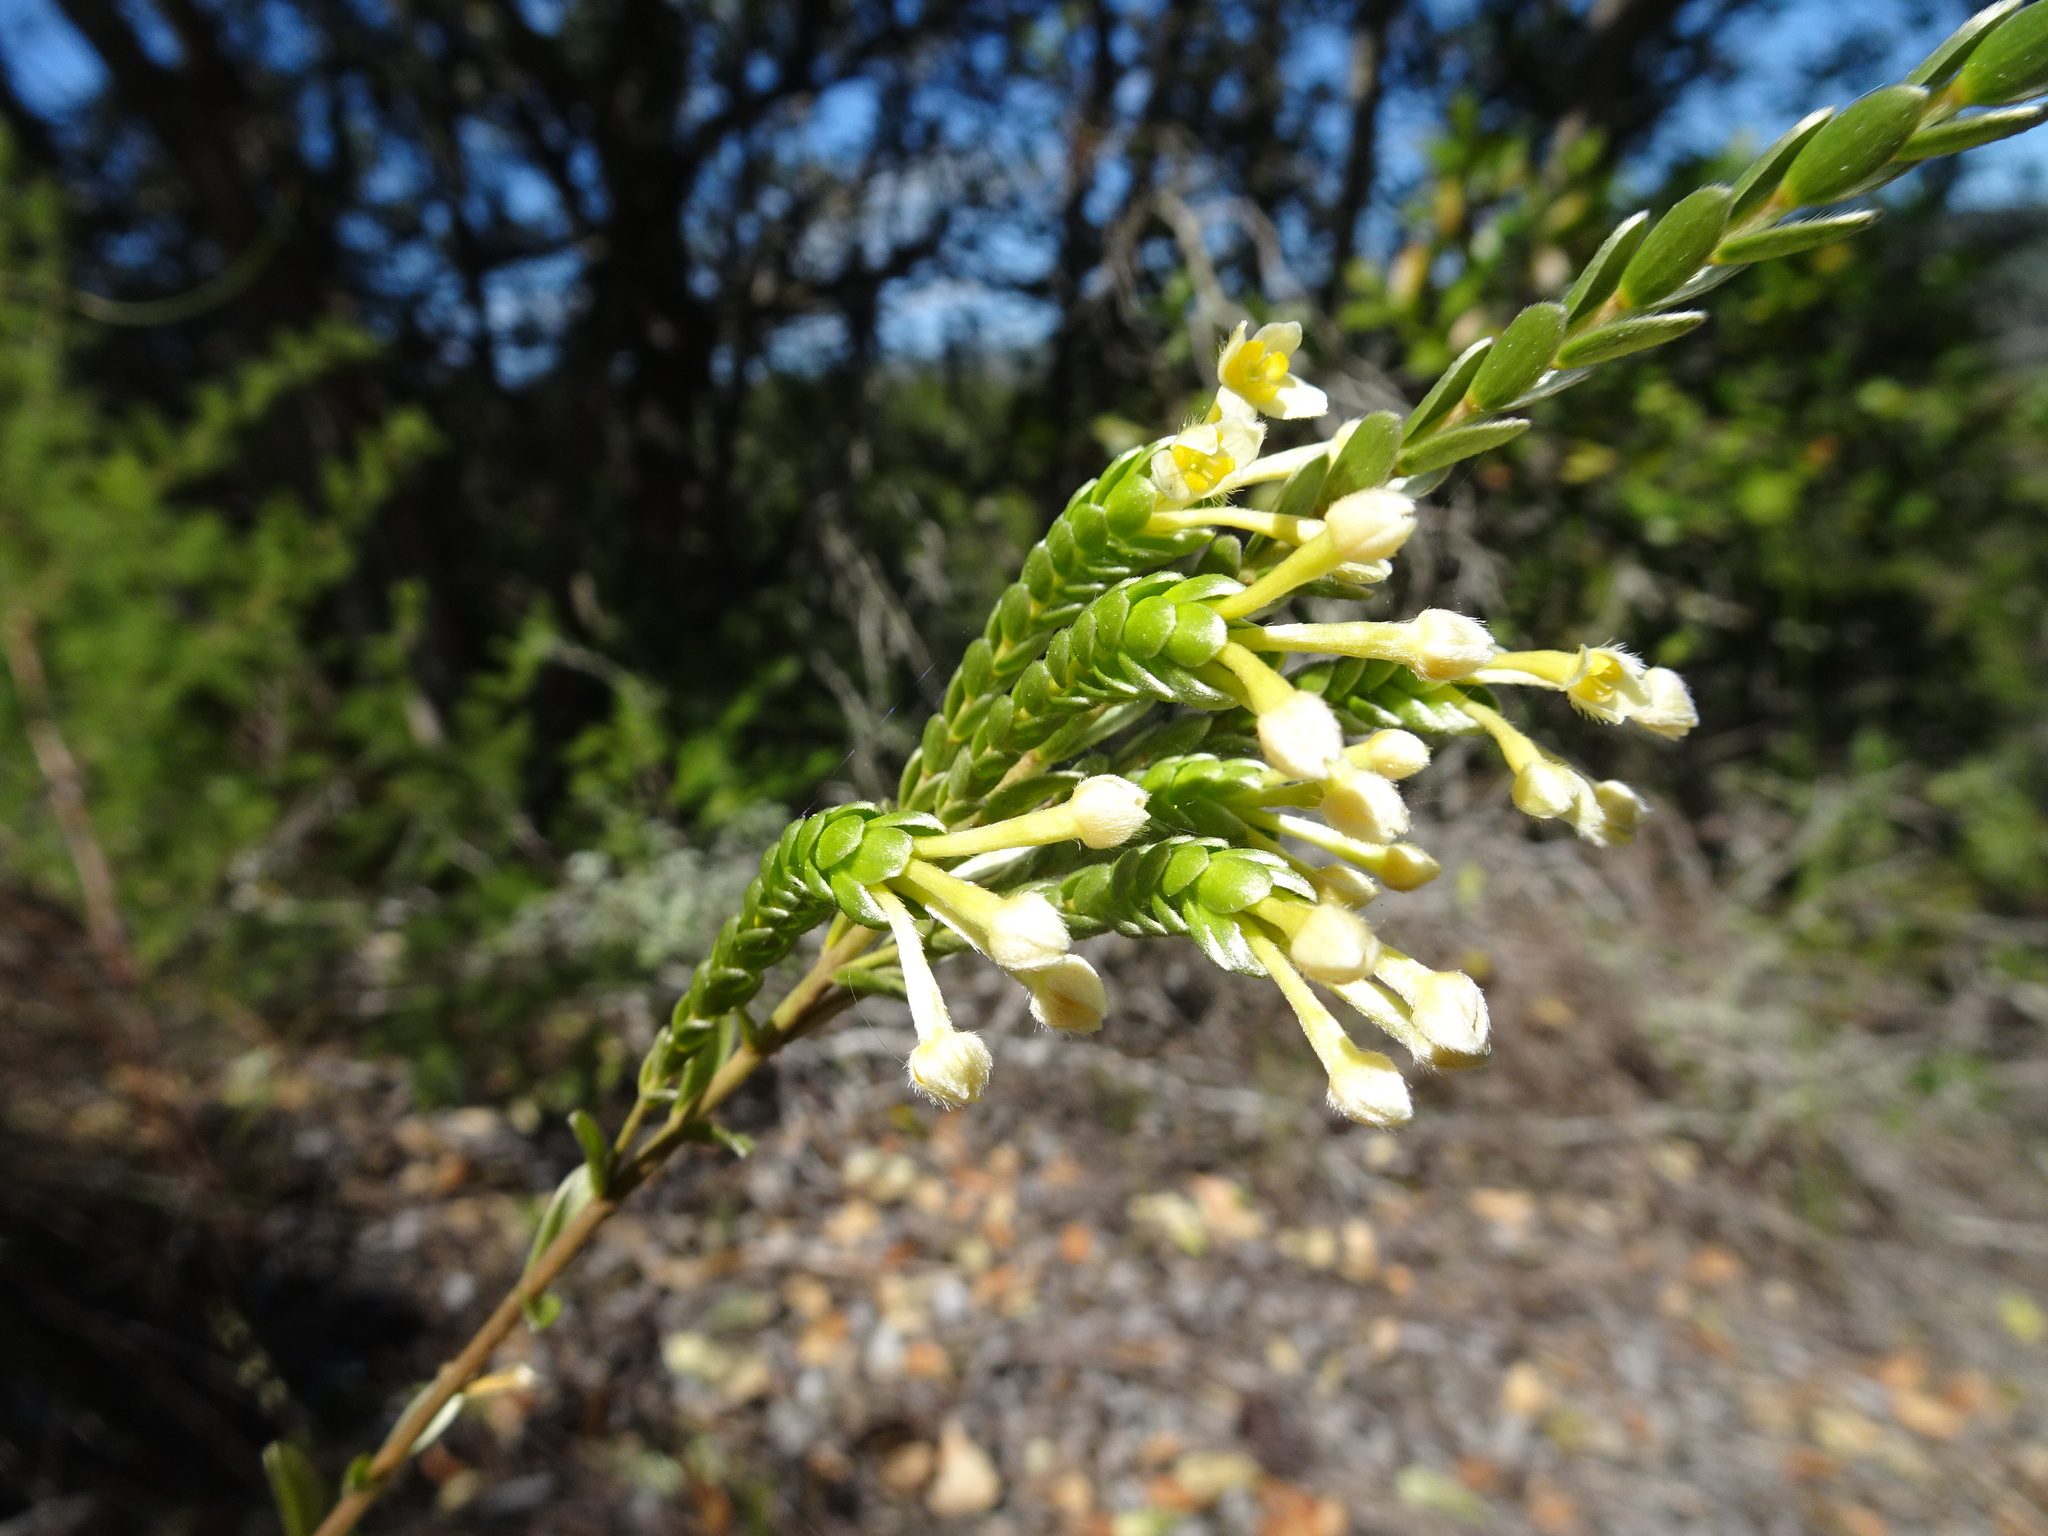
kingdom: Plantae
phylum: Tracheophyta
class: Magnoliopsida
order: Malvales
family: Thymelaeaceae
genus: Gnidia
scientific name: Gnidia chrysophylla
